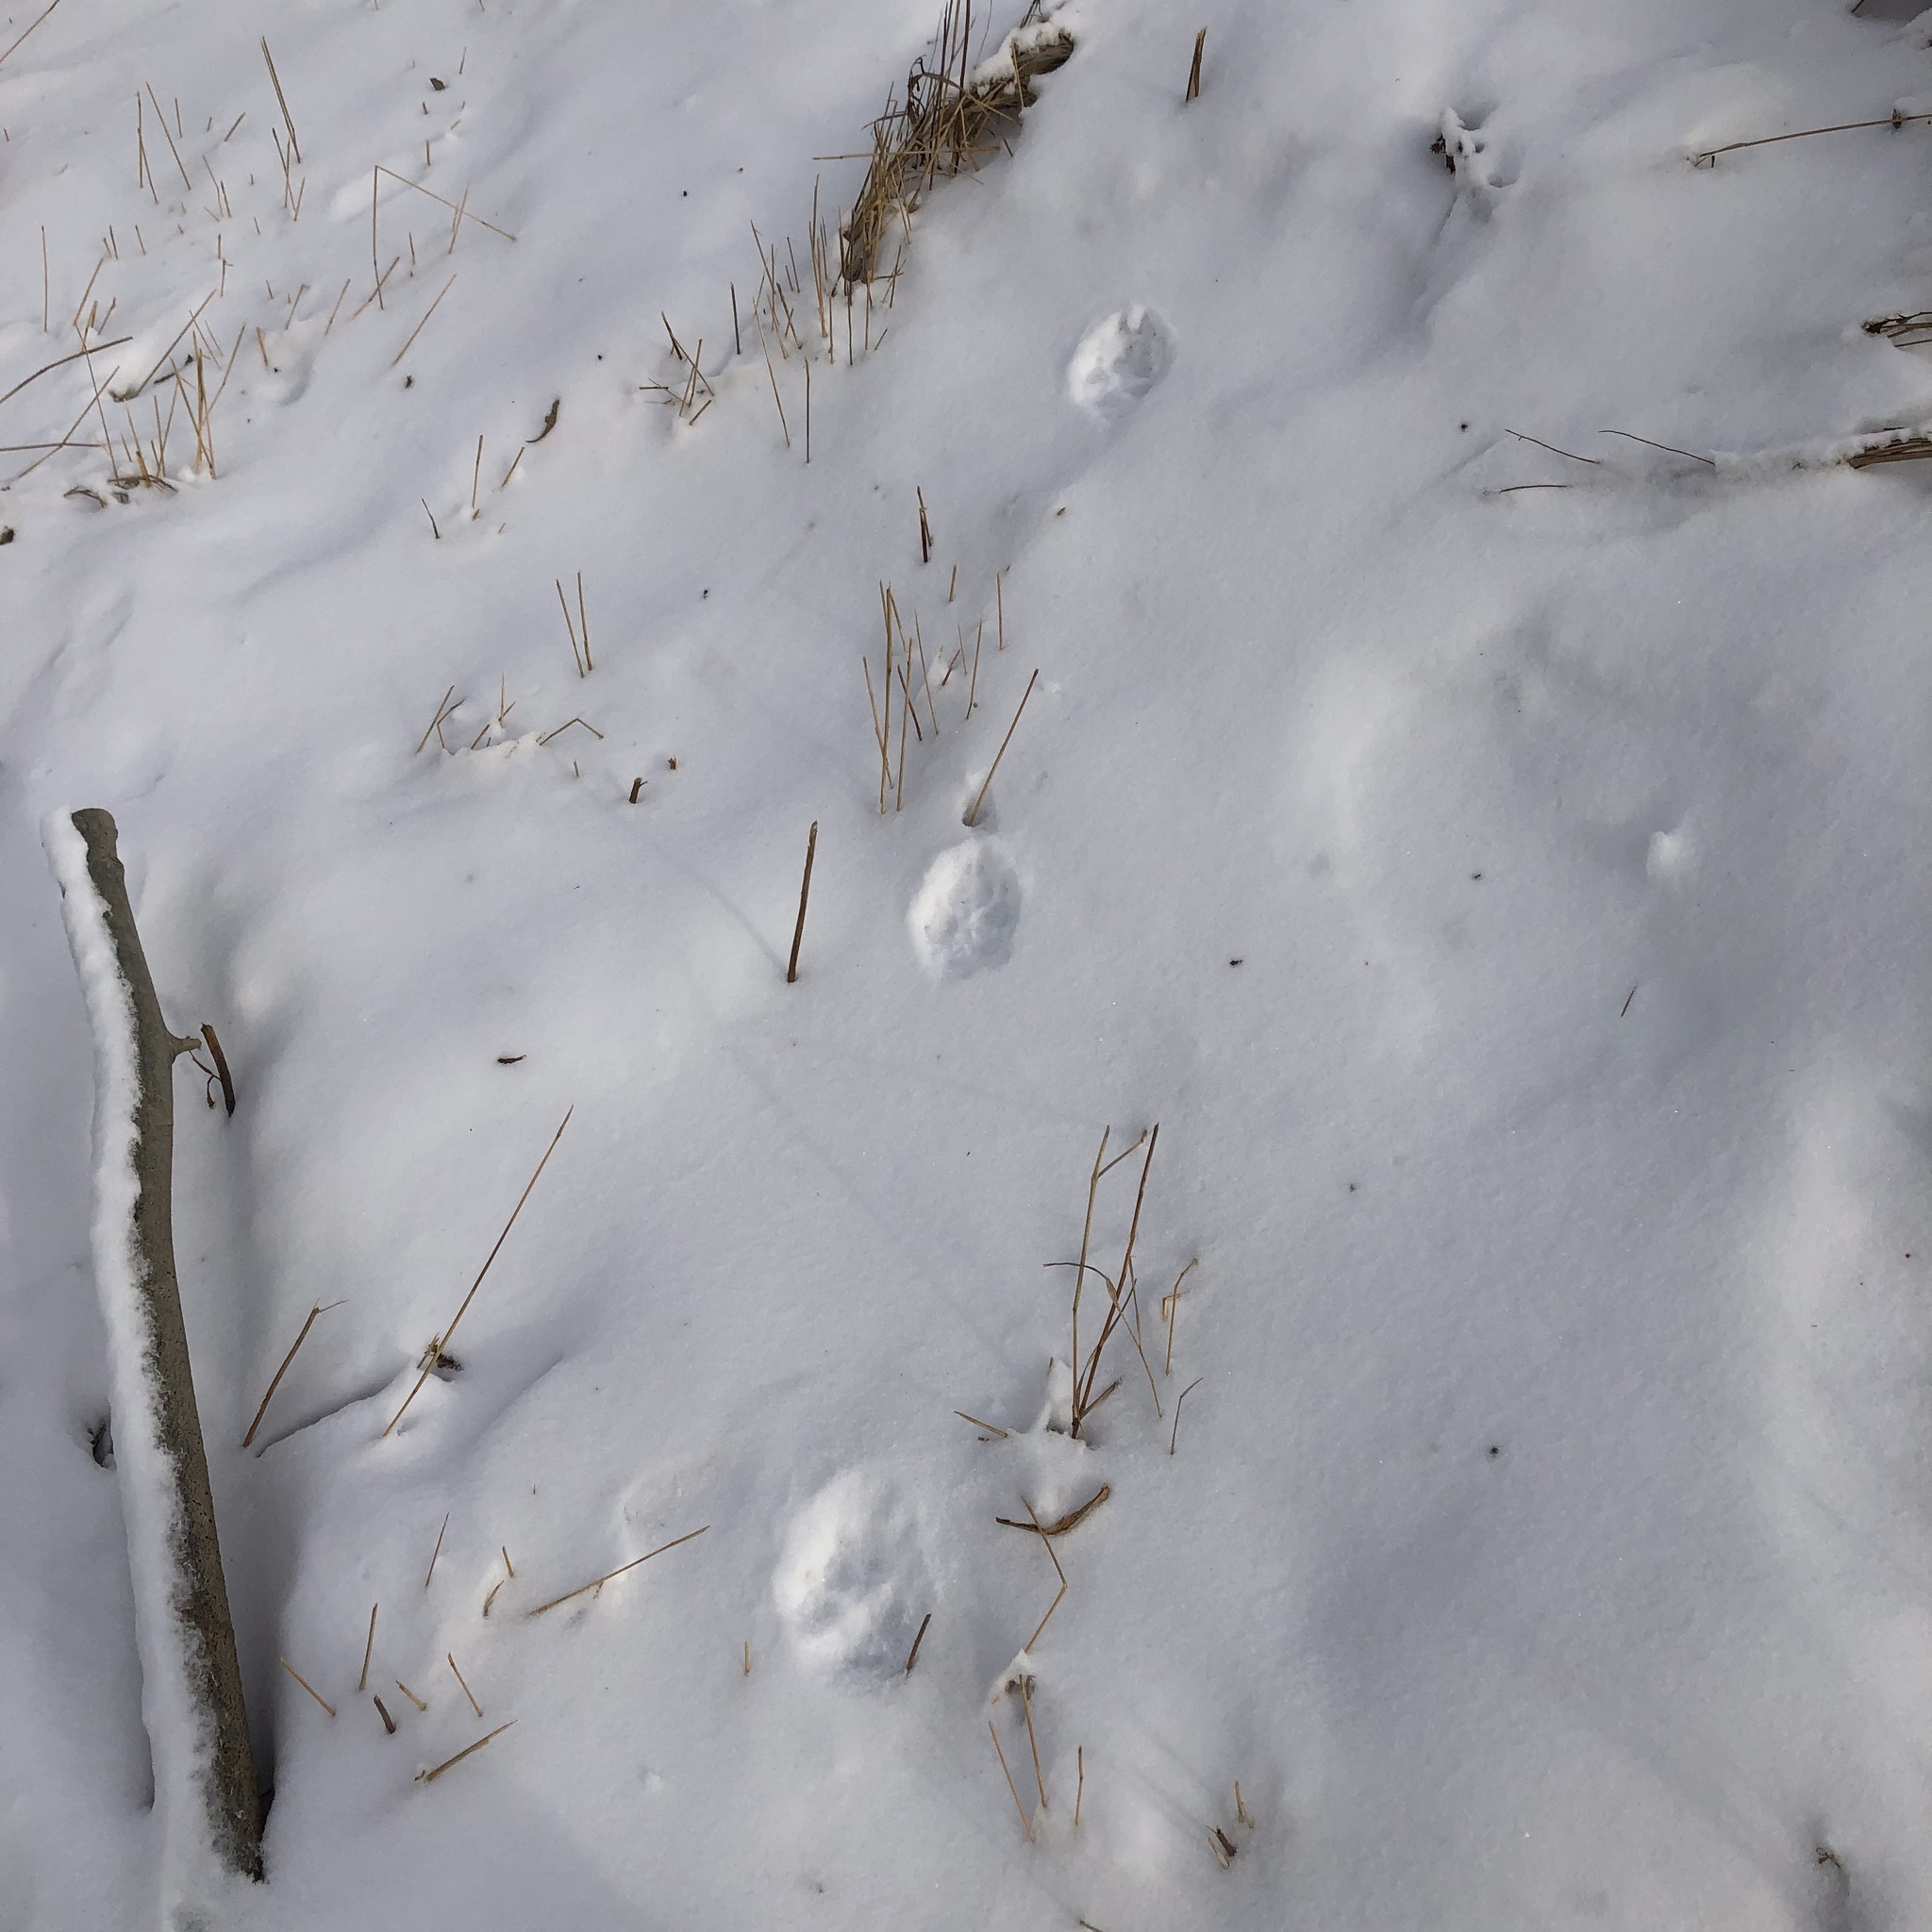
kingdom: Animalia
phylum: Chordata
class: Mammalia
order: Carnivora
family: Canidae
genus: Canis
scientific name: Canis latrans
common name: Coyote
